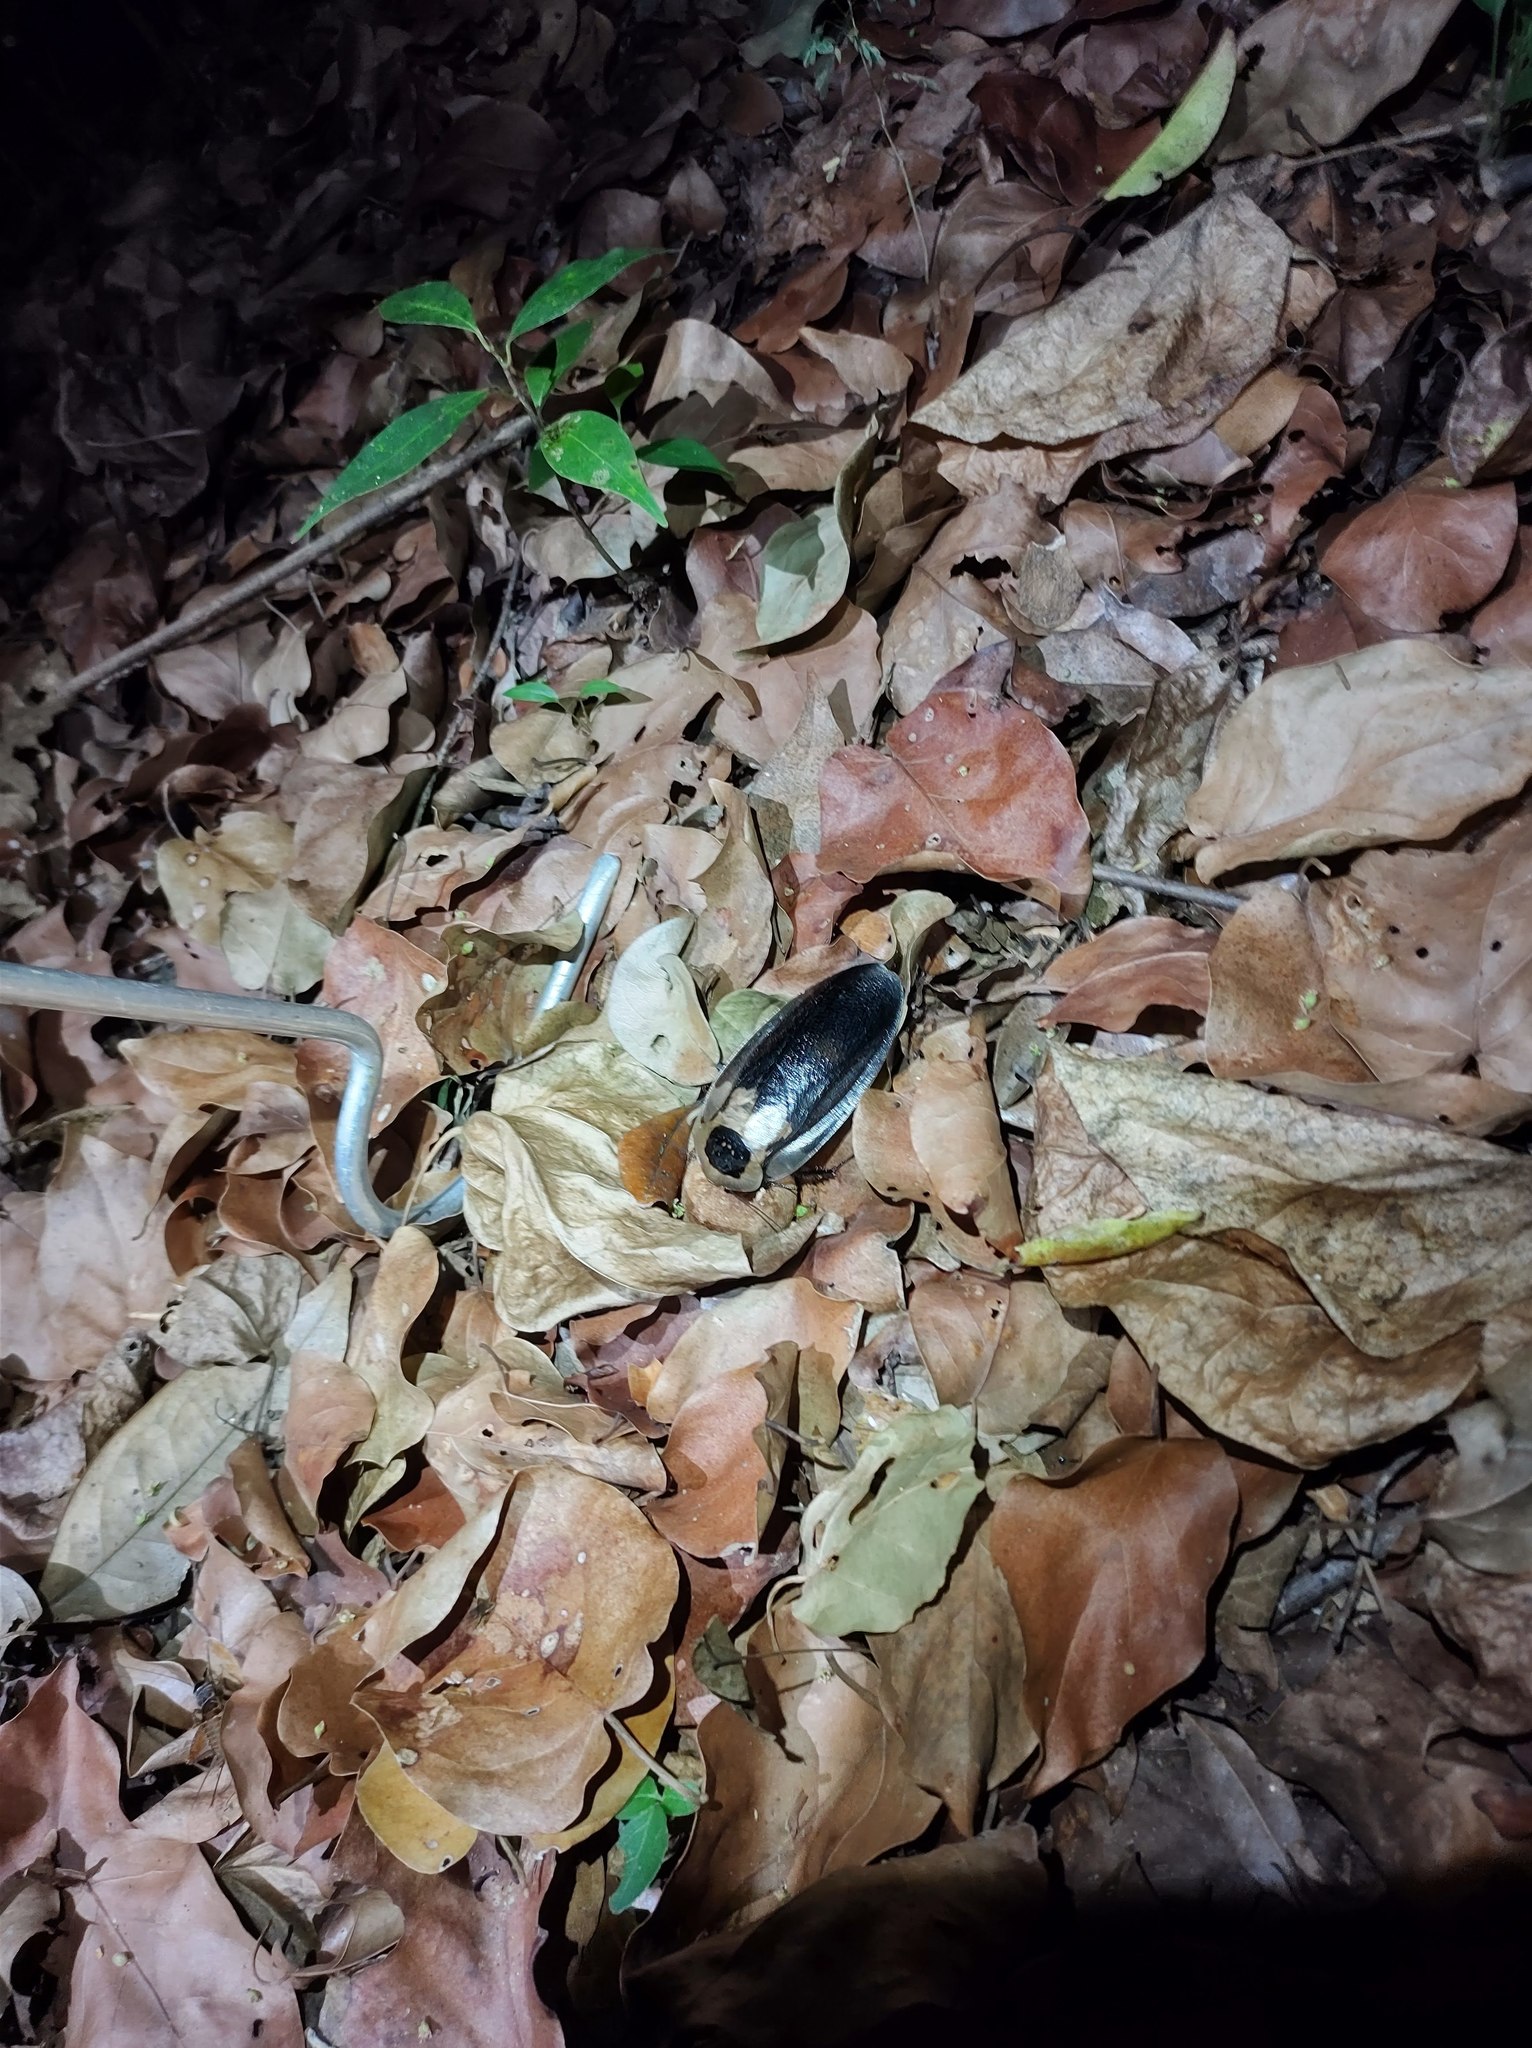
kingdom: Animalia
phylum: Arthropoda
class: Insecta
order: Blattodea
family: Blaberidae
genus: Blaberus
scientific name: Blaberus craniifer
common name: Death's head cockroach
